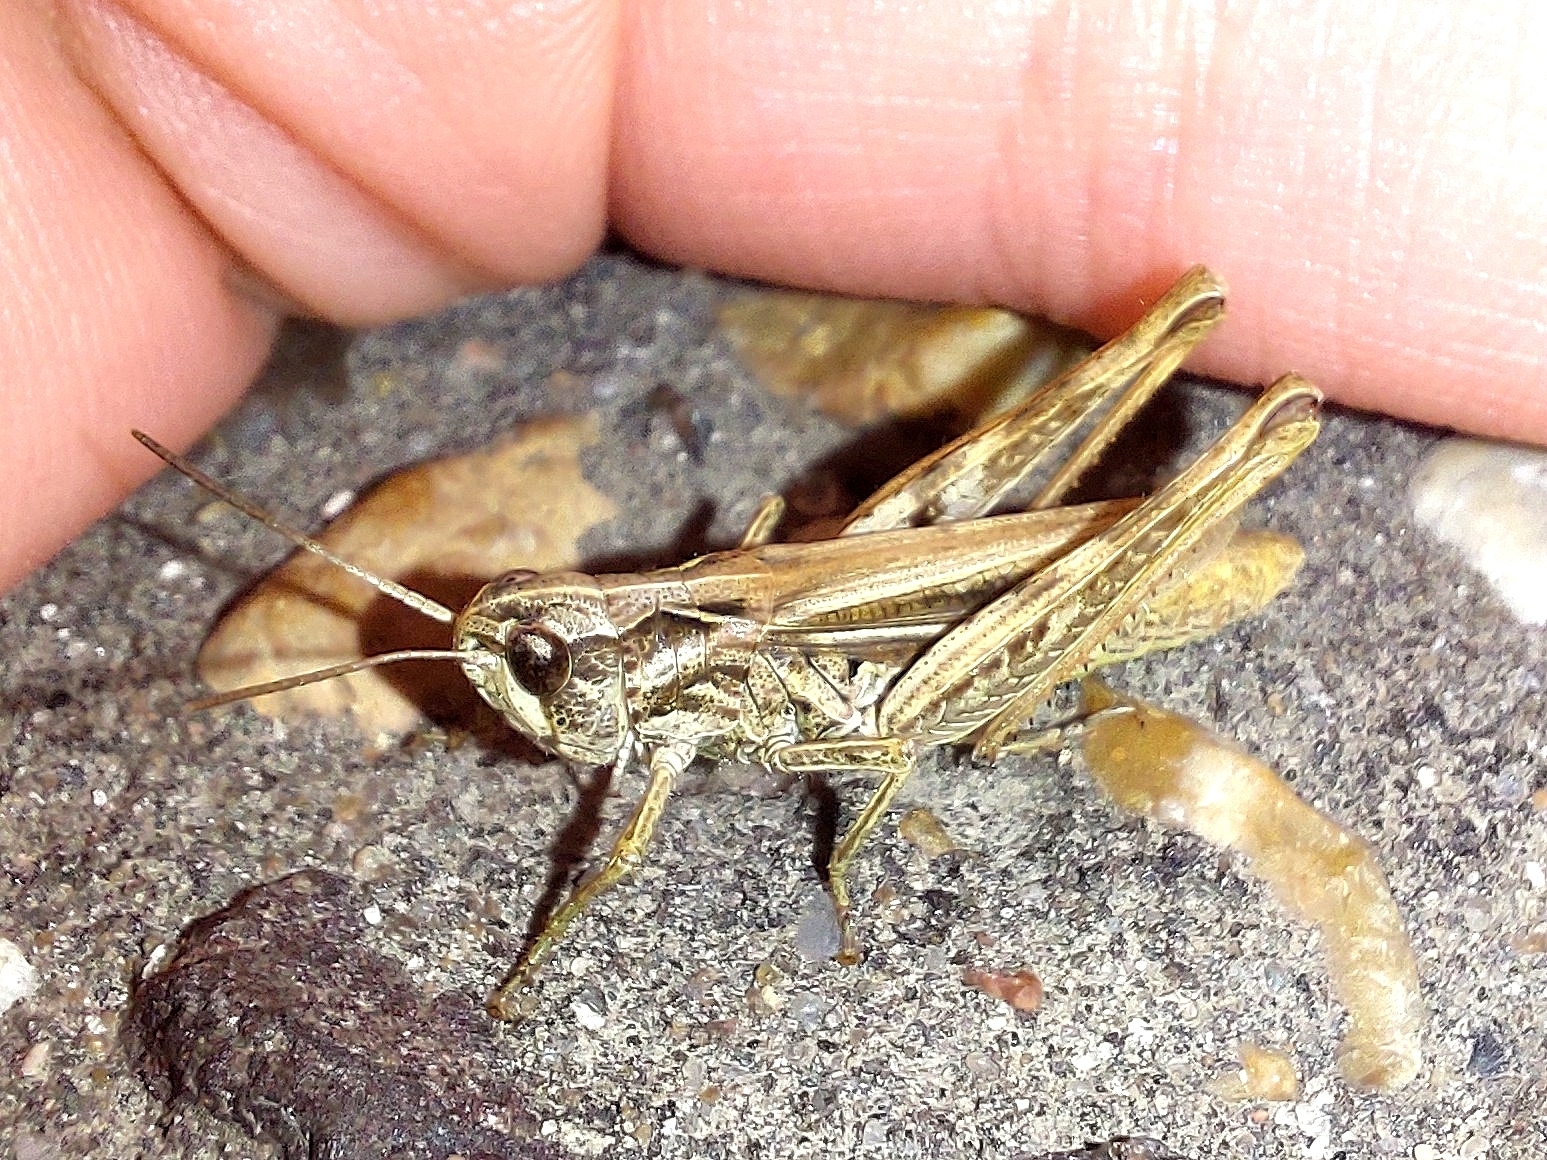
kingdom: Animalia
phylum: Arthropoda
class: Insecta
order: Orthoptera
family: Acrididae
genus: Chorthippus
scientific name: Chorthippus apricarius
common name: Upland field grasshopper
